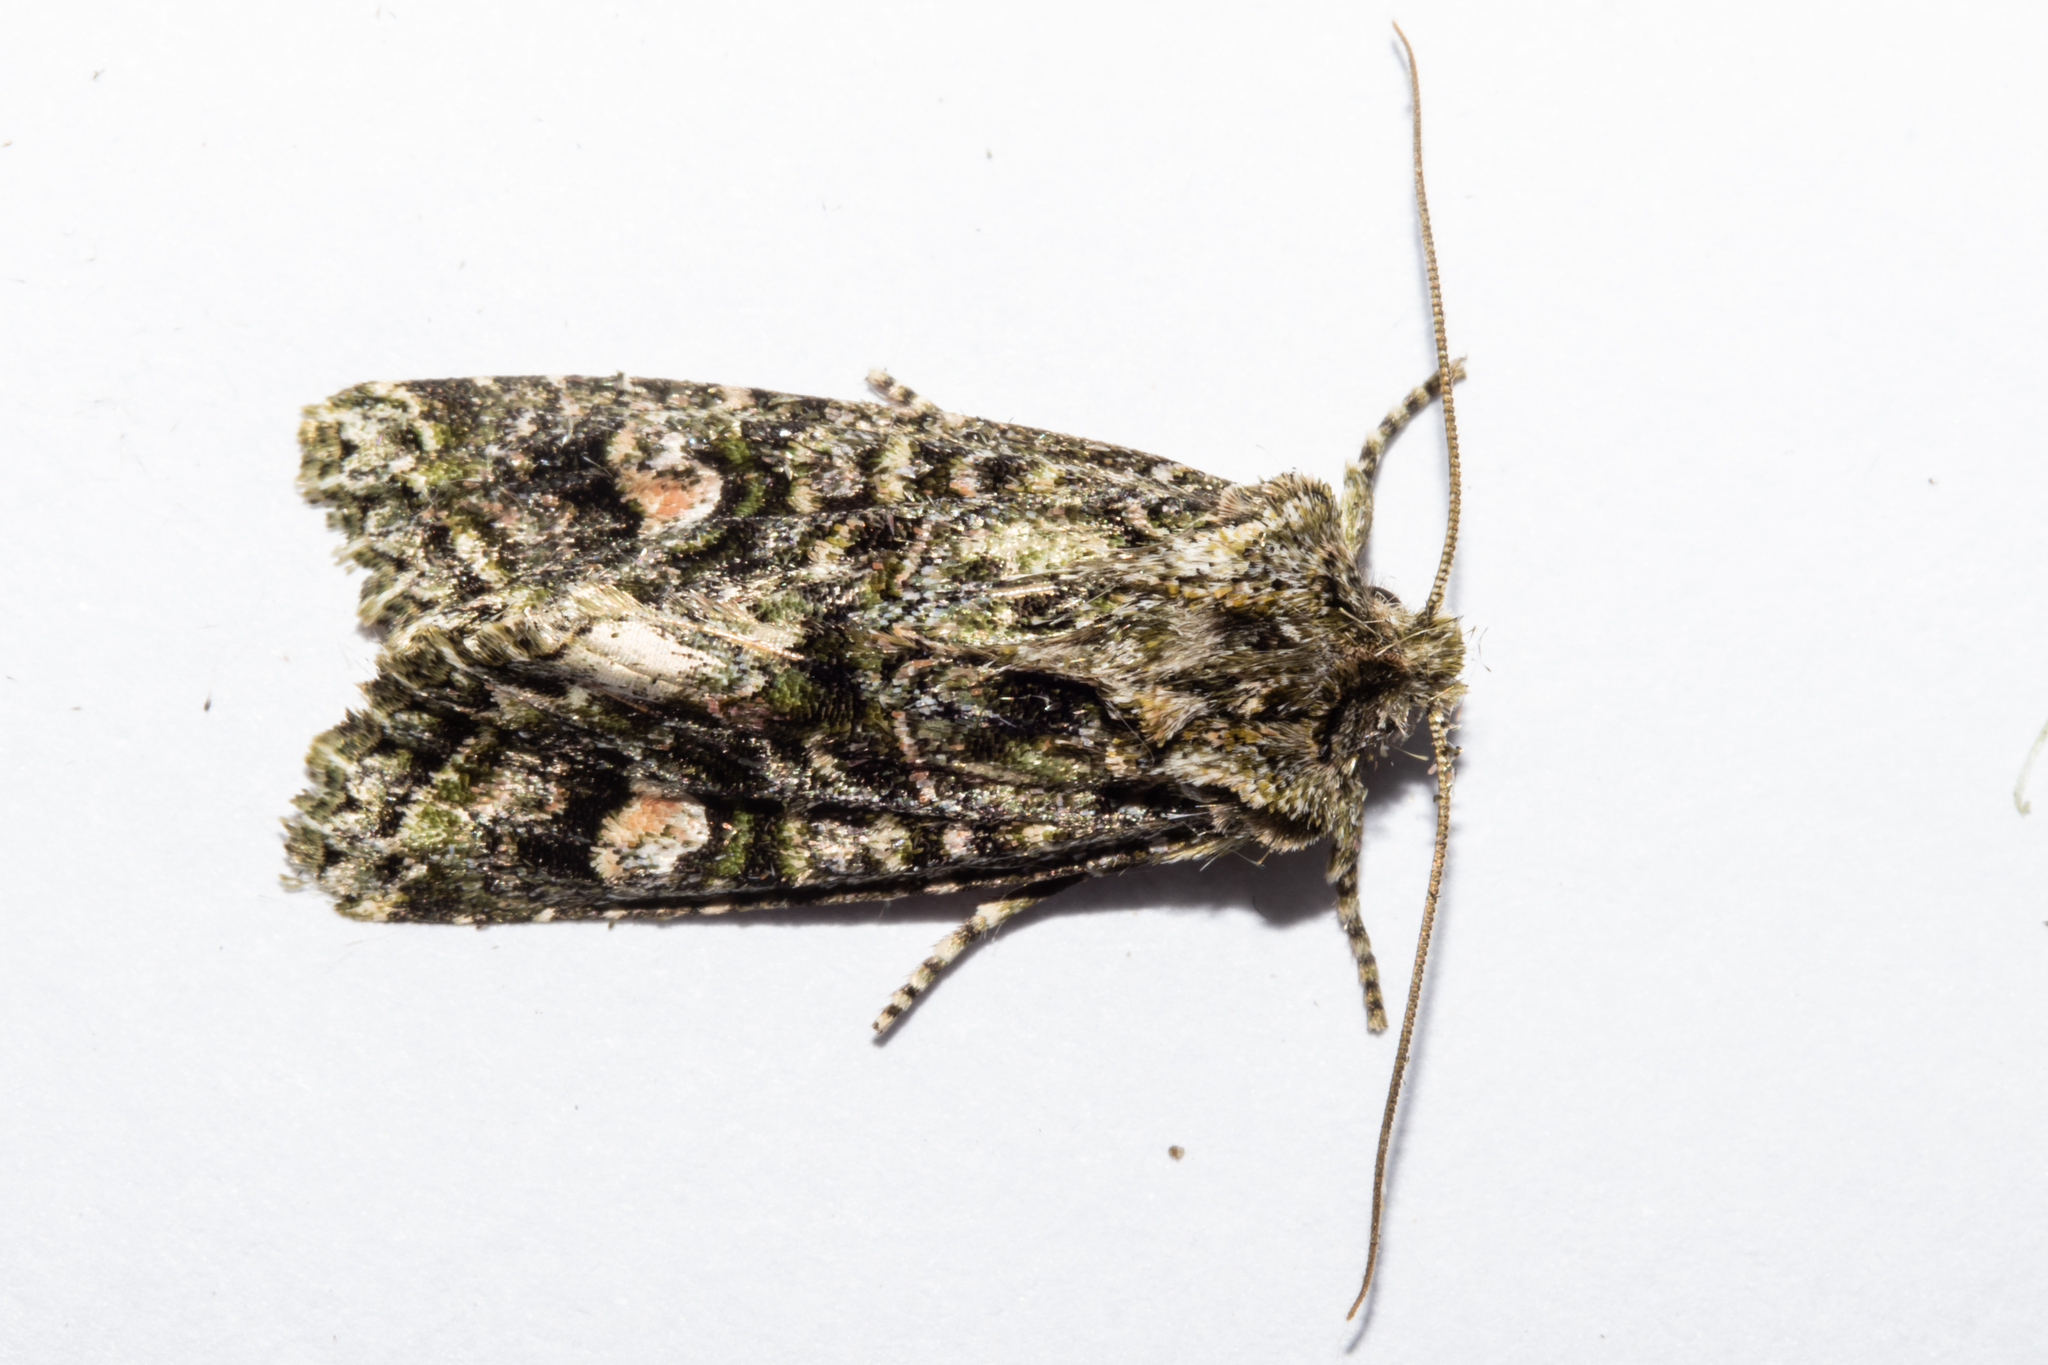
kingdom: Animalia
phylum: Arthropoda
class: Insecta
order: Lepidoptera
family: Noctuidae
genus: Ichneutica
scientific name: Ichneutica
